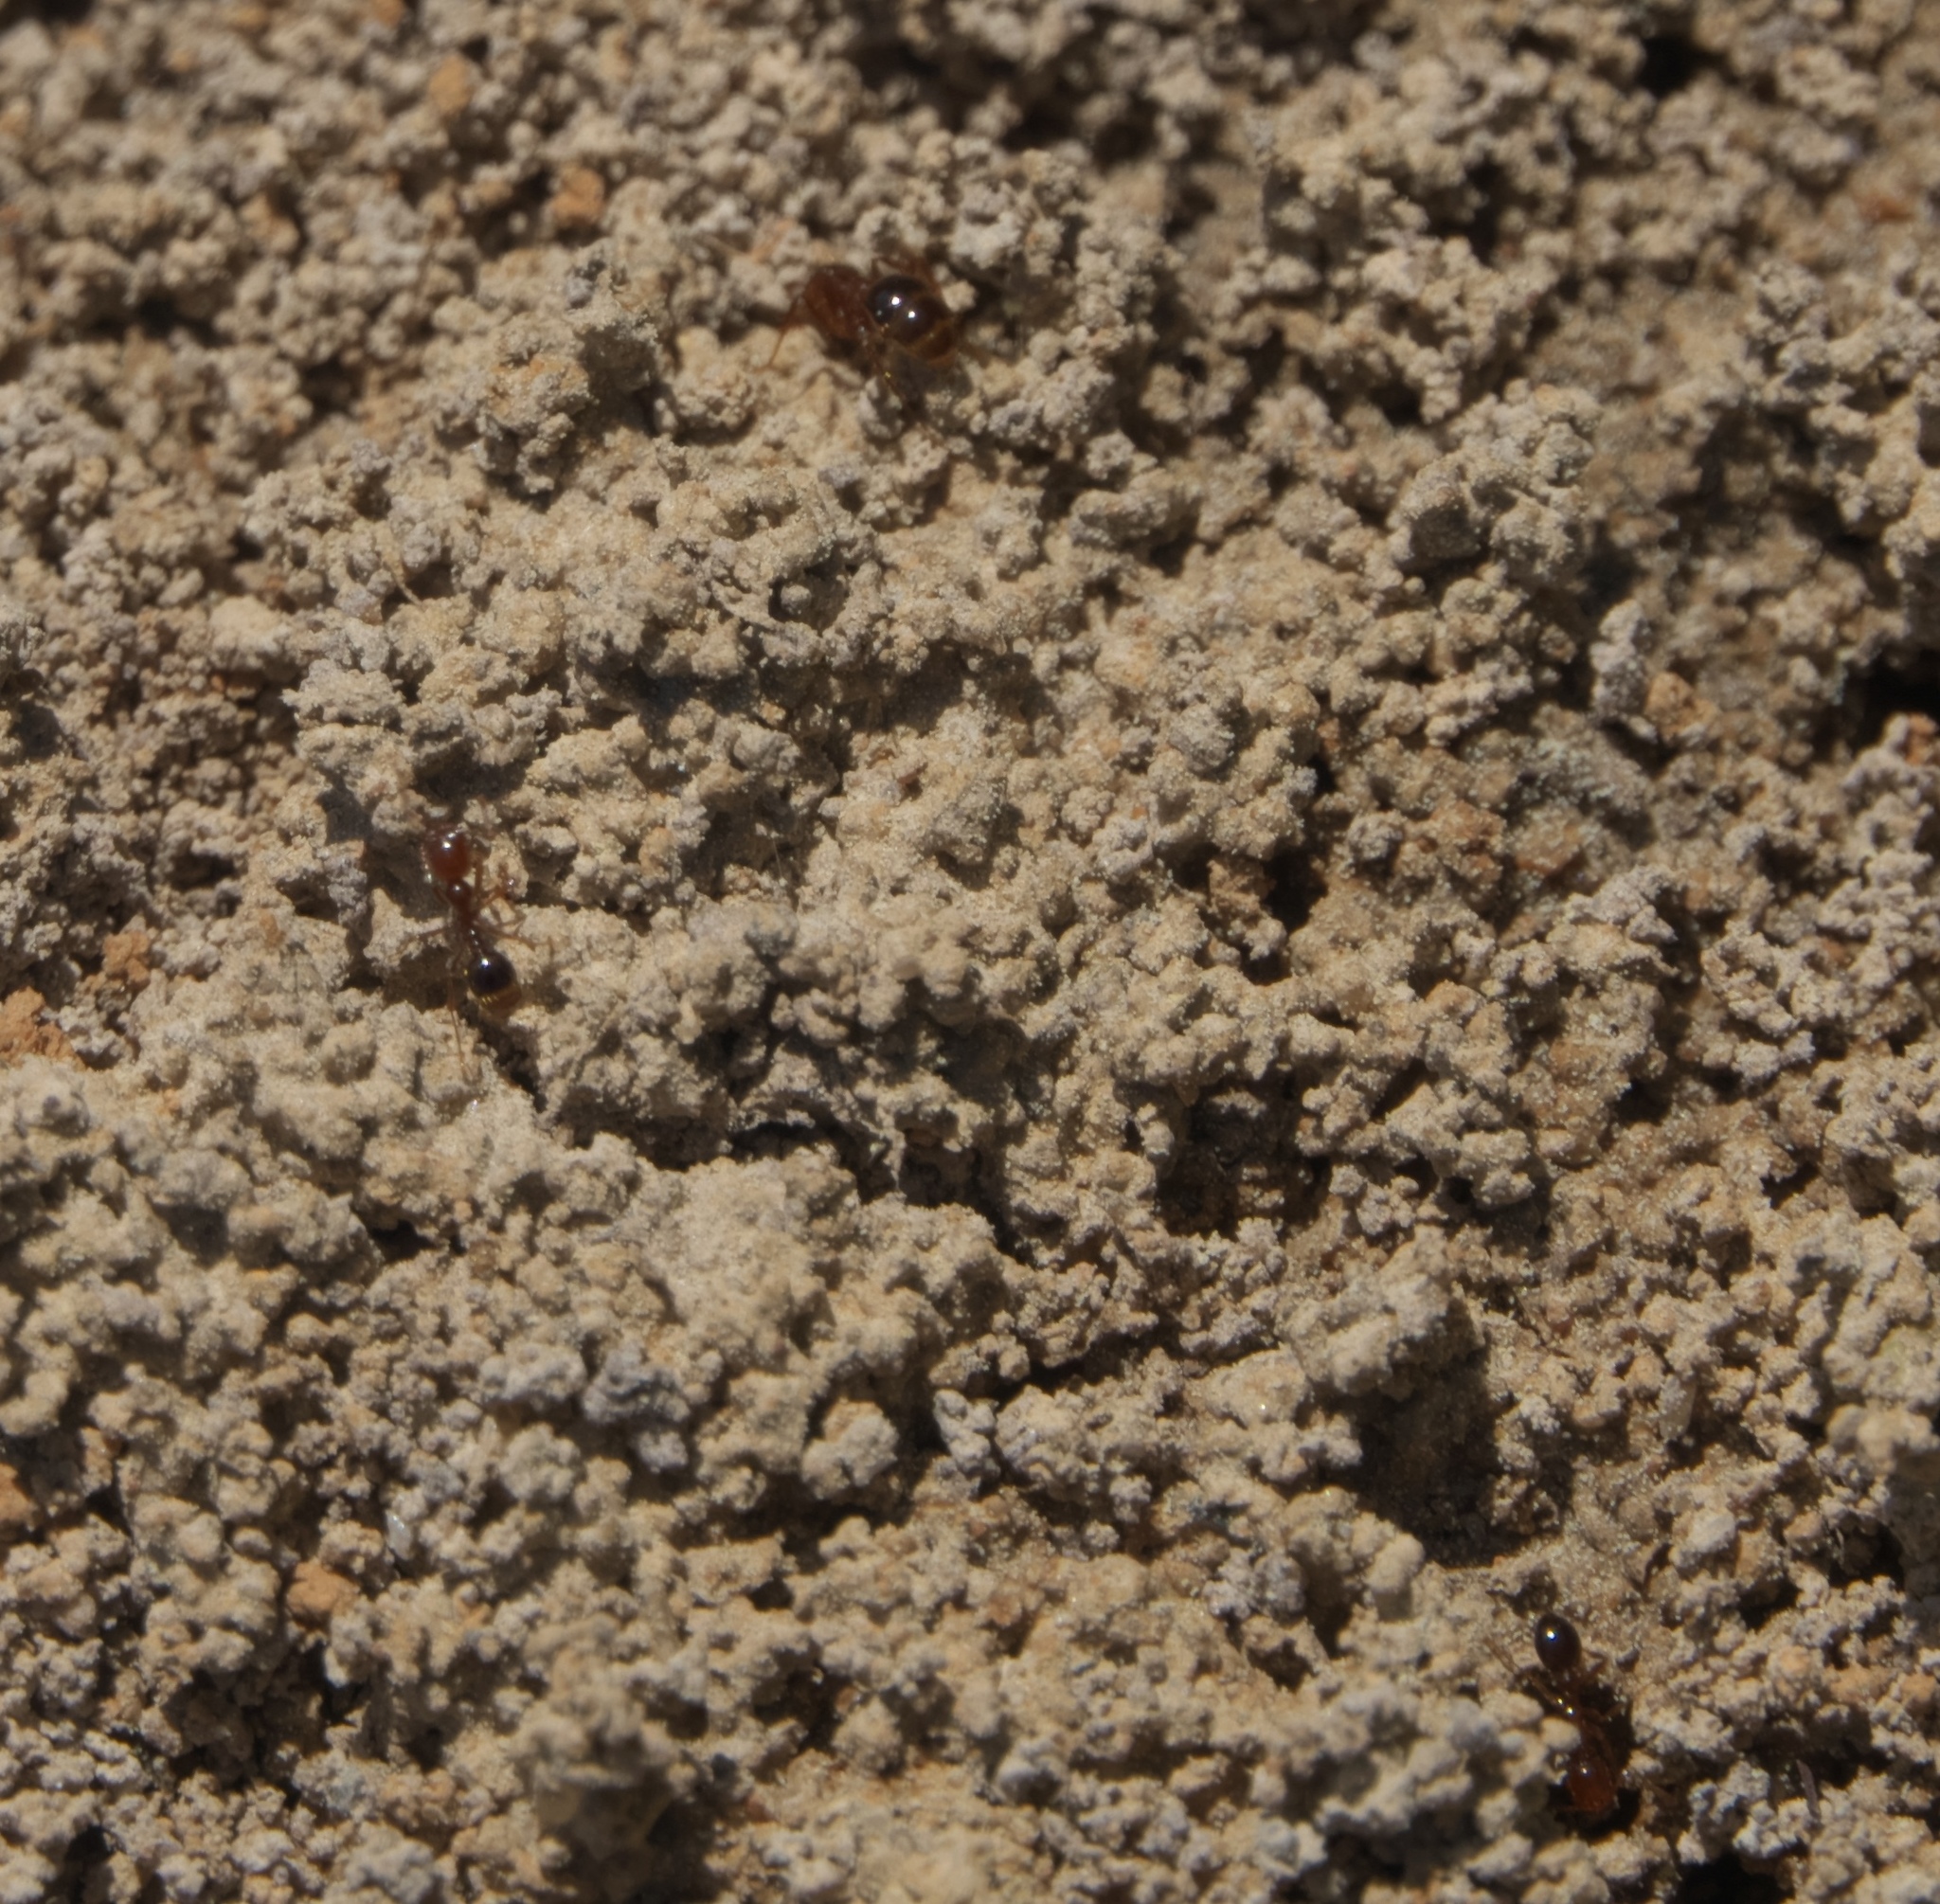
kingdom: Animalia
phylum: Arthropoda
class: Insecta
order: Hymenoptera
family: Formicidae
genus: Solenopsis
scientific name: Solenopsis invicta
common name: Red imported fire ant
